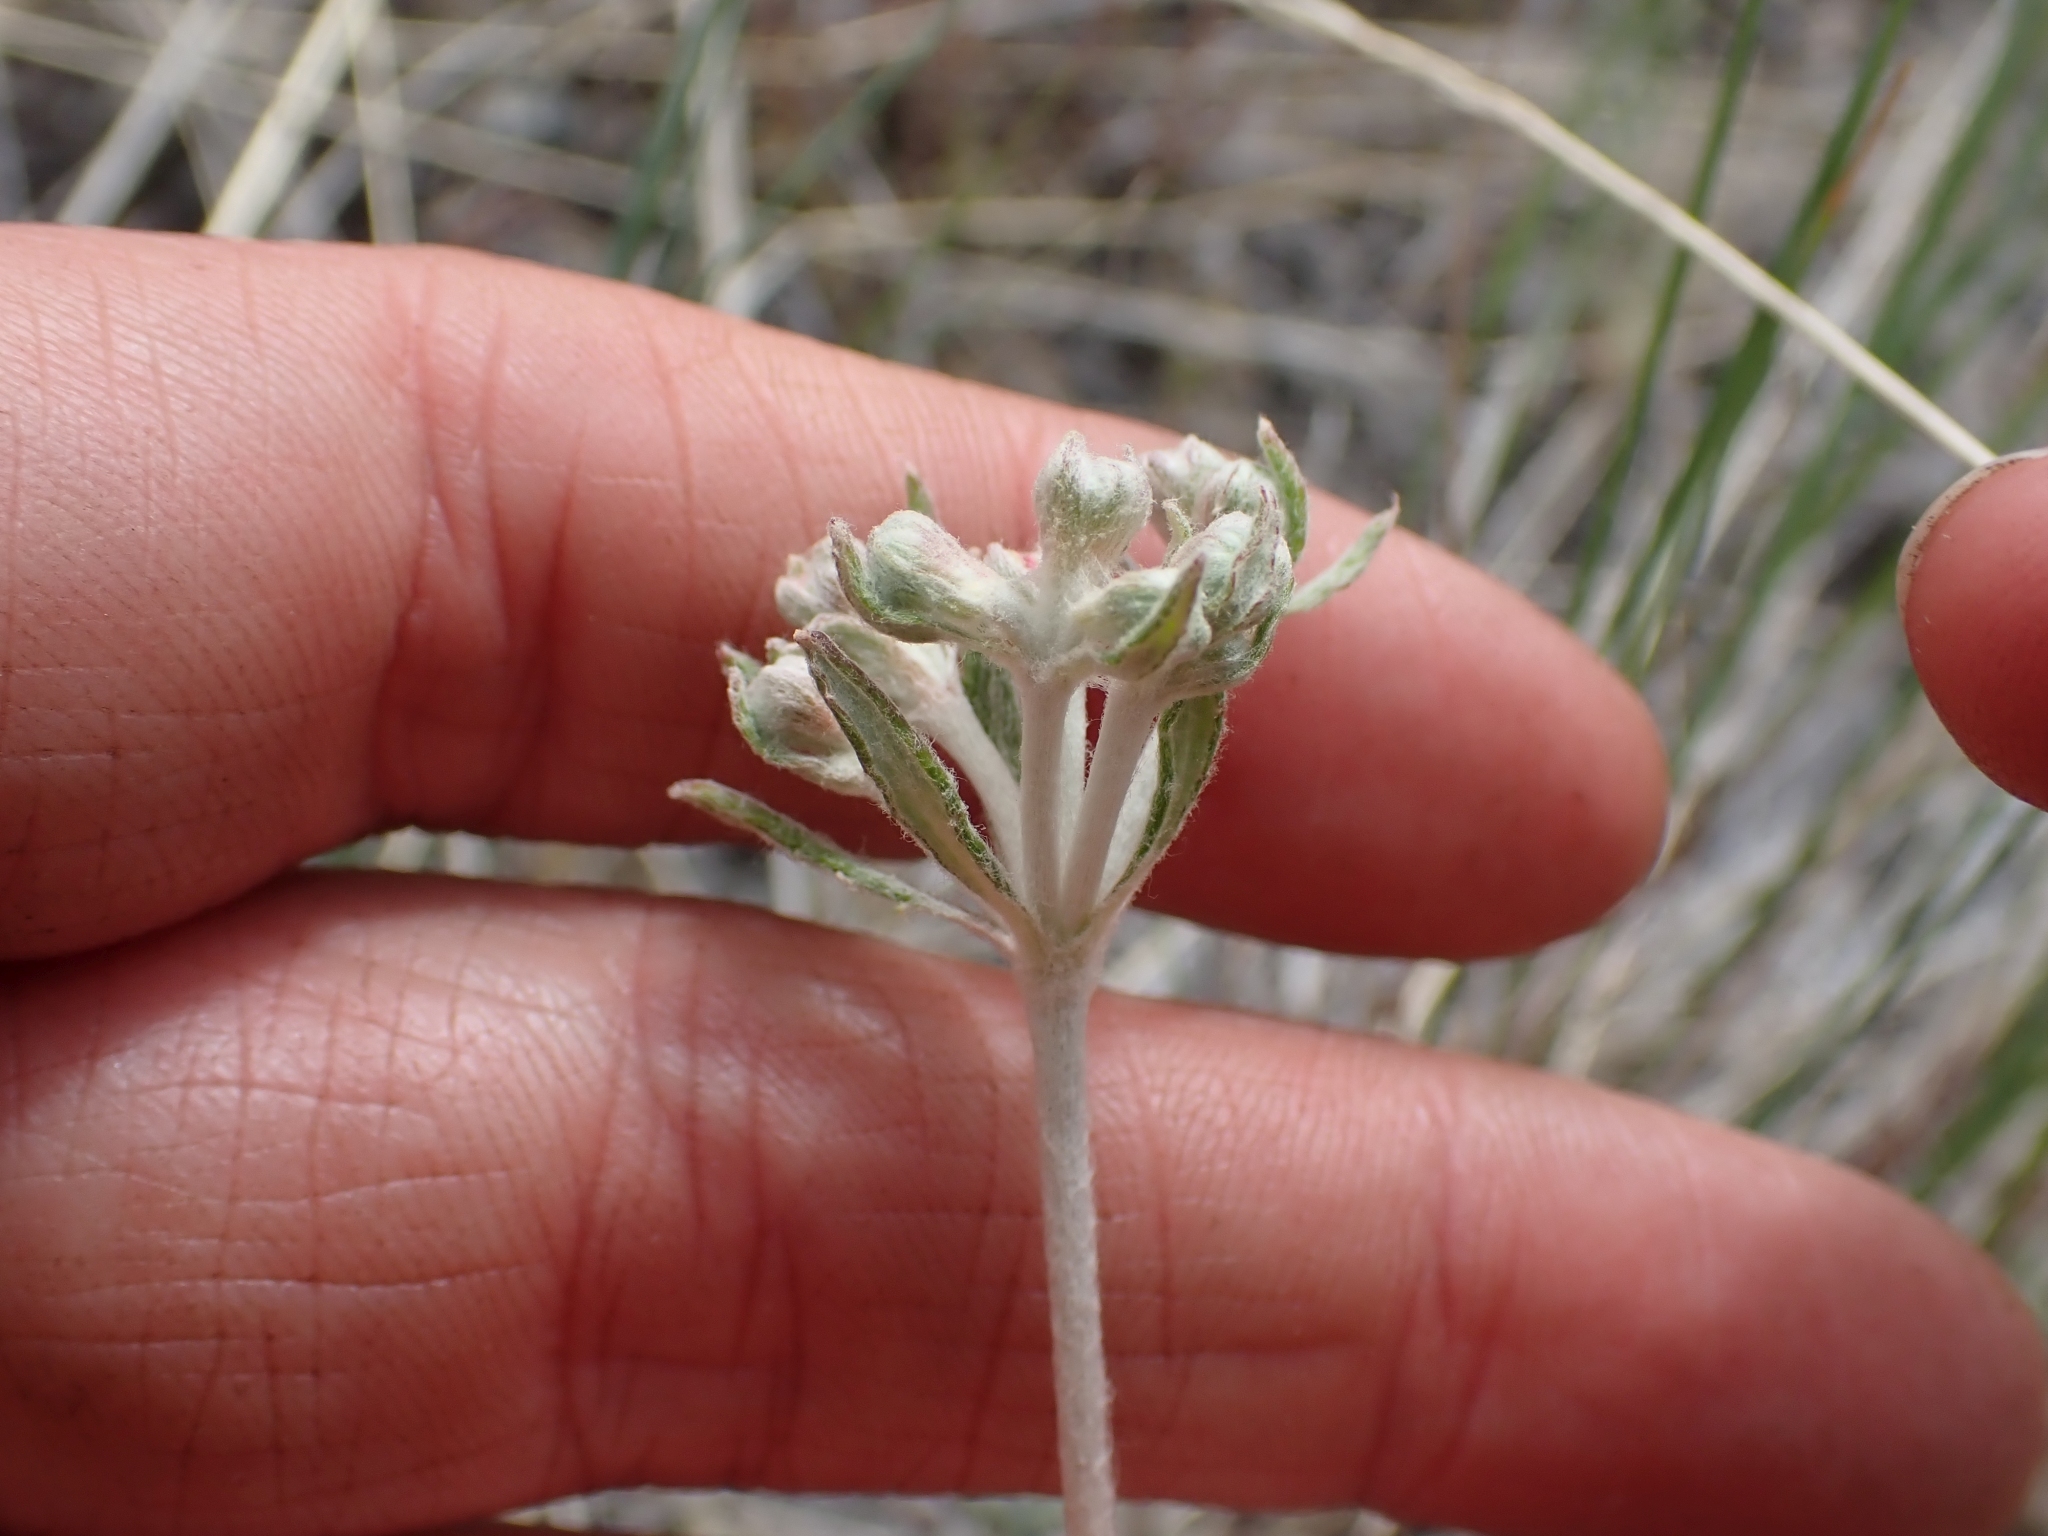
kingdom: Plantae
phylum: Tracheophyta
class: Magnoliopsida
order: Caryophyllales
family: Polygonaceae
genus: Eriogonum
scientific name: Eriogonum heracleoides
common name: Wyeth's buckwheat
